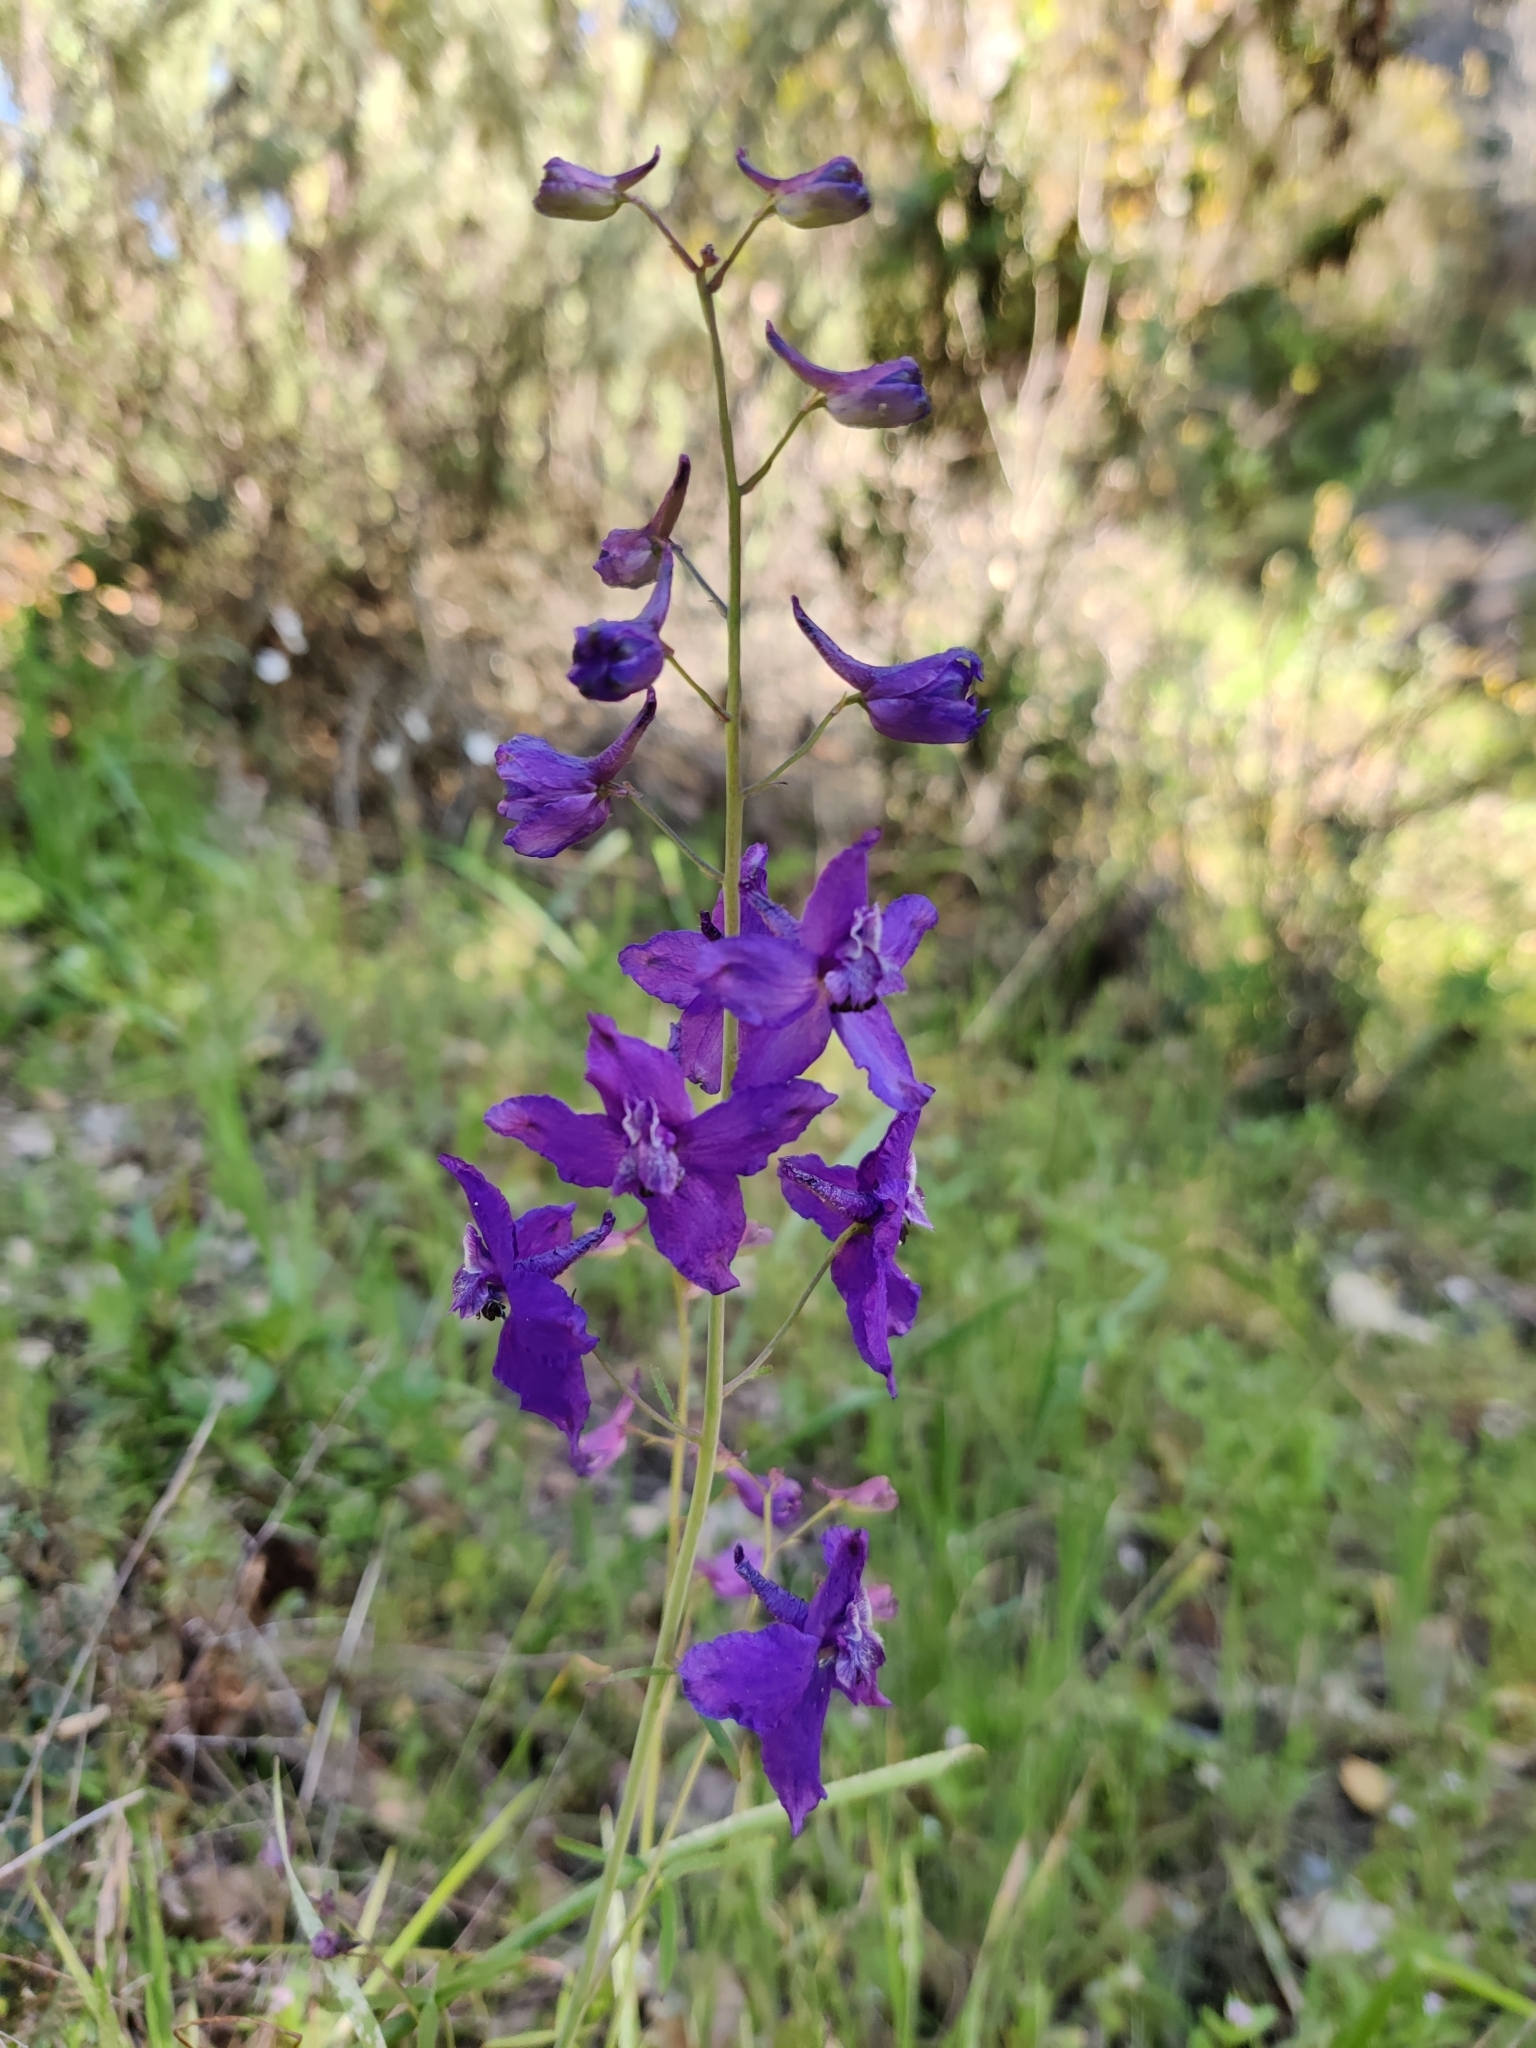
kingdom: Plantae
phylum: Tracheophyta
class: Magnoliopsida
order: Ranunculales
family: Ranunculaceae
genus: Delphinium
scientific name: Delphinium patens
